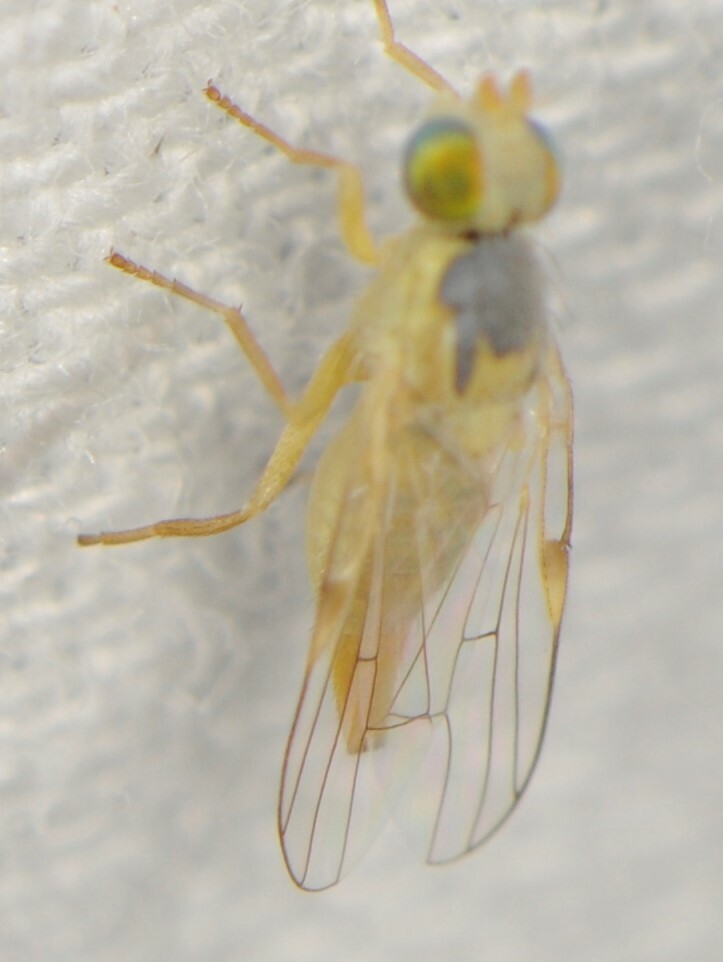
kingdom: Animalia
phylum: Arthropoda
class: Insecta
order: Diptera
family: Tephritidae
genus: Neaspilota
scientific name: Neaspilota
